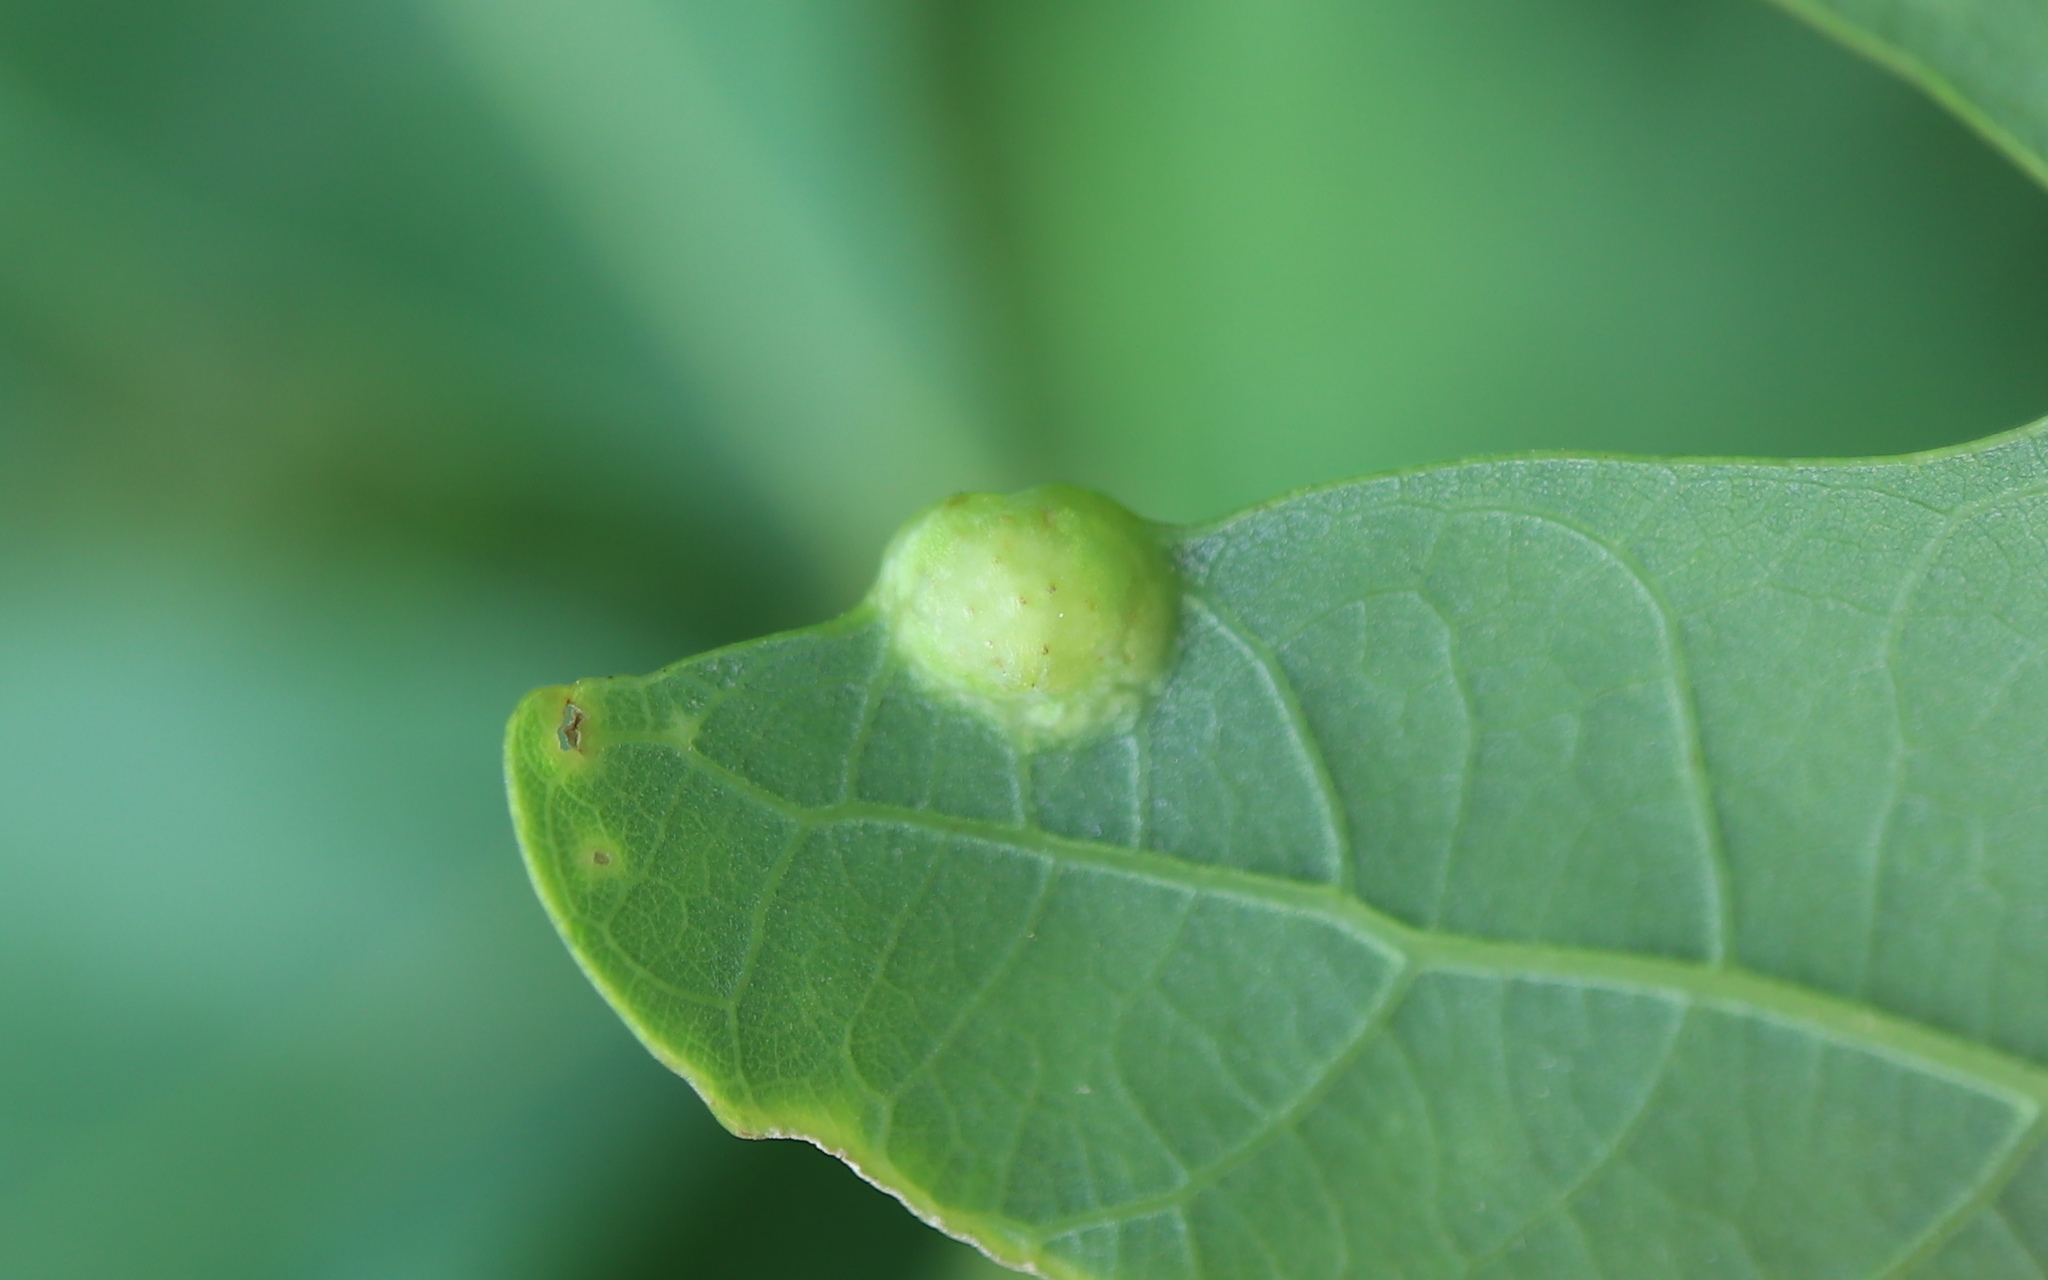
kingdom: Animalia
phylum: Arthropoda
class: Insecta
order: Hymenoptera
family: Cynipidae
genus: Callirhytis
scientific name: Callirhytis
